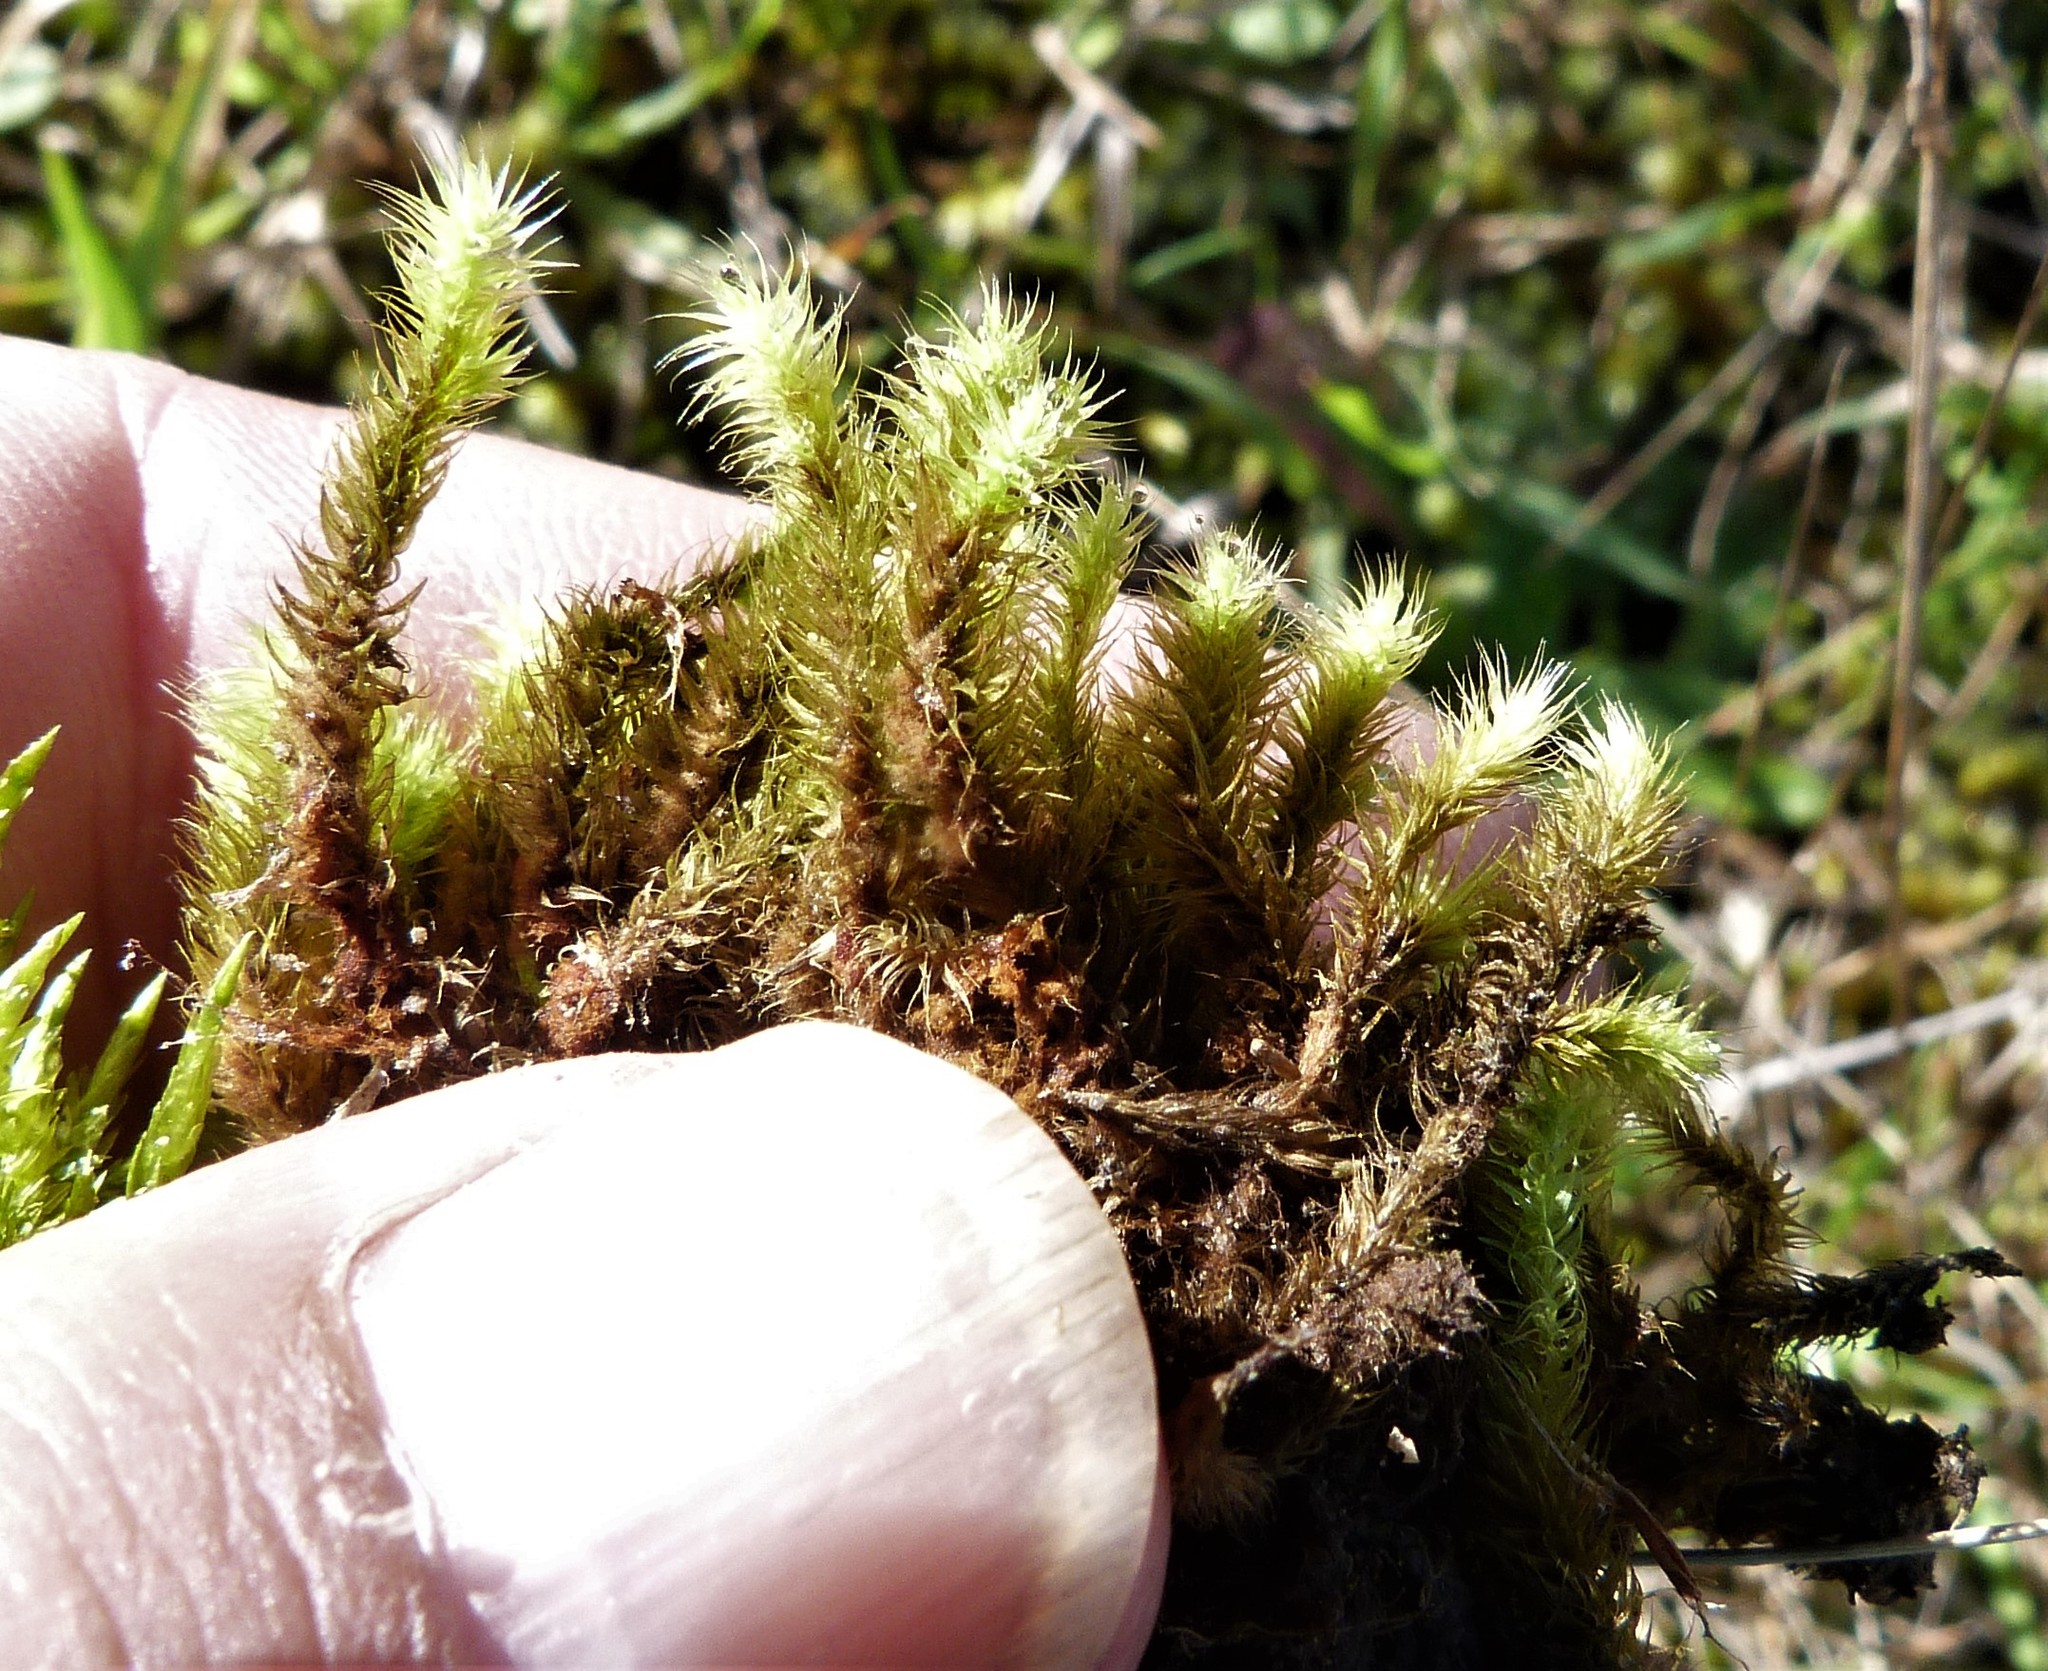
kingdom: Plantae
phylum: Bryophyta
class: Bryopsida
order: Bartramiales
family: Bartramiaceae
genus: Breutelia
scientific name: Breutelia affinis
